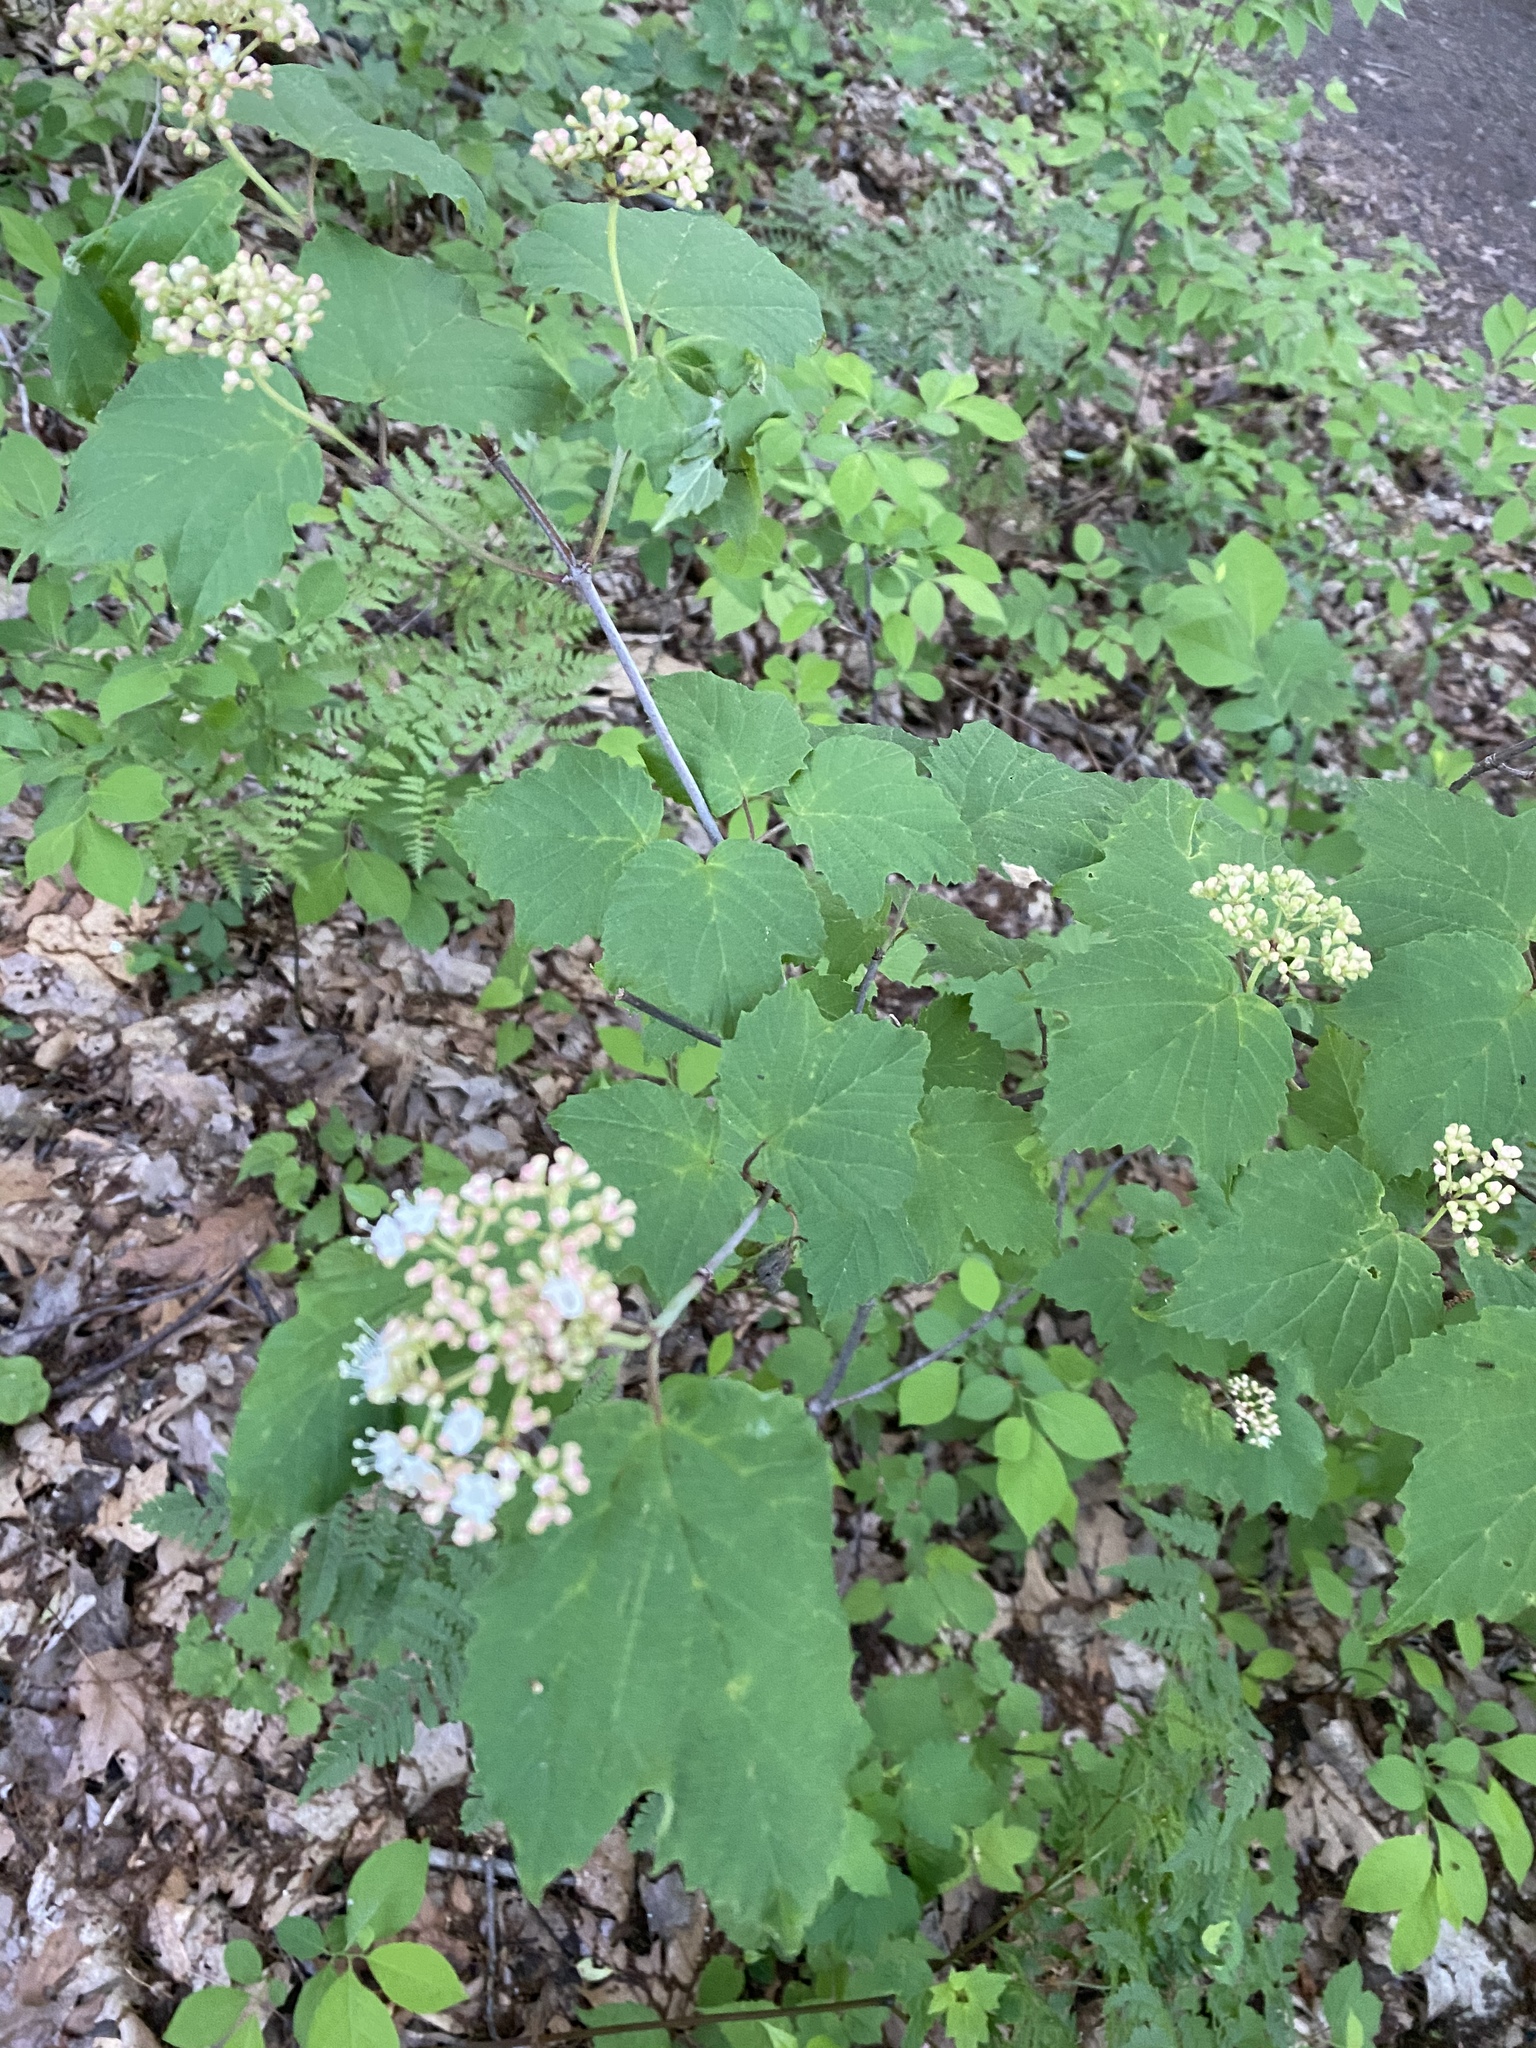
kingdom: Plantae
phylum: Tracheophyta
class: Magnoliopsida
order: Dipsacales
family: Viburnaceae
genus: Viburnum
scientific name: Viburnum acerifolium
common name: Dockmackie
